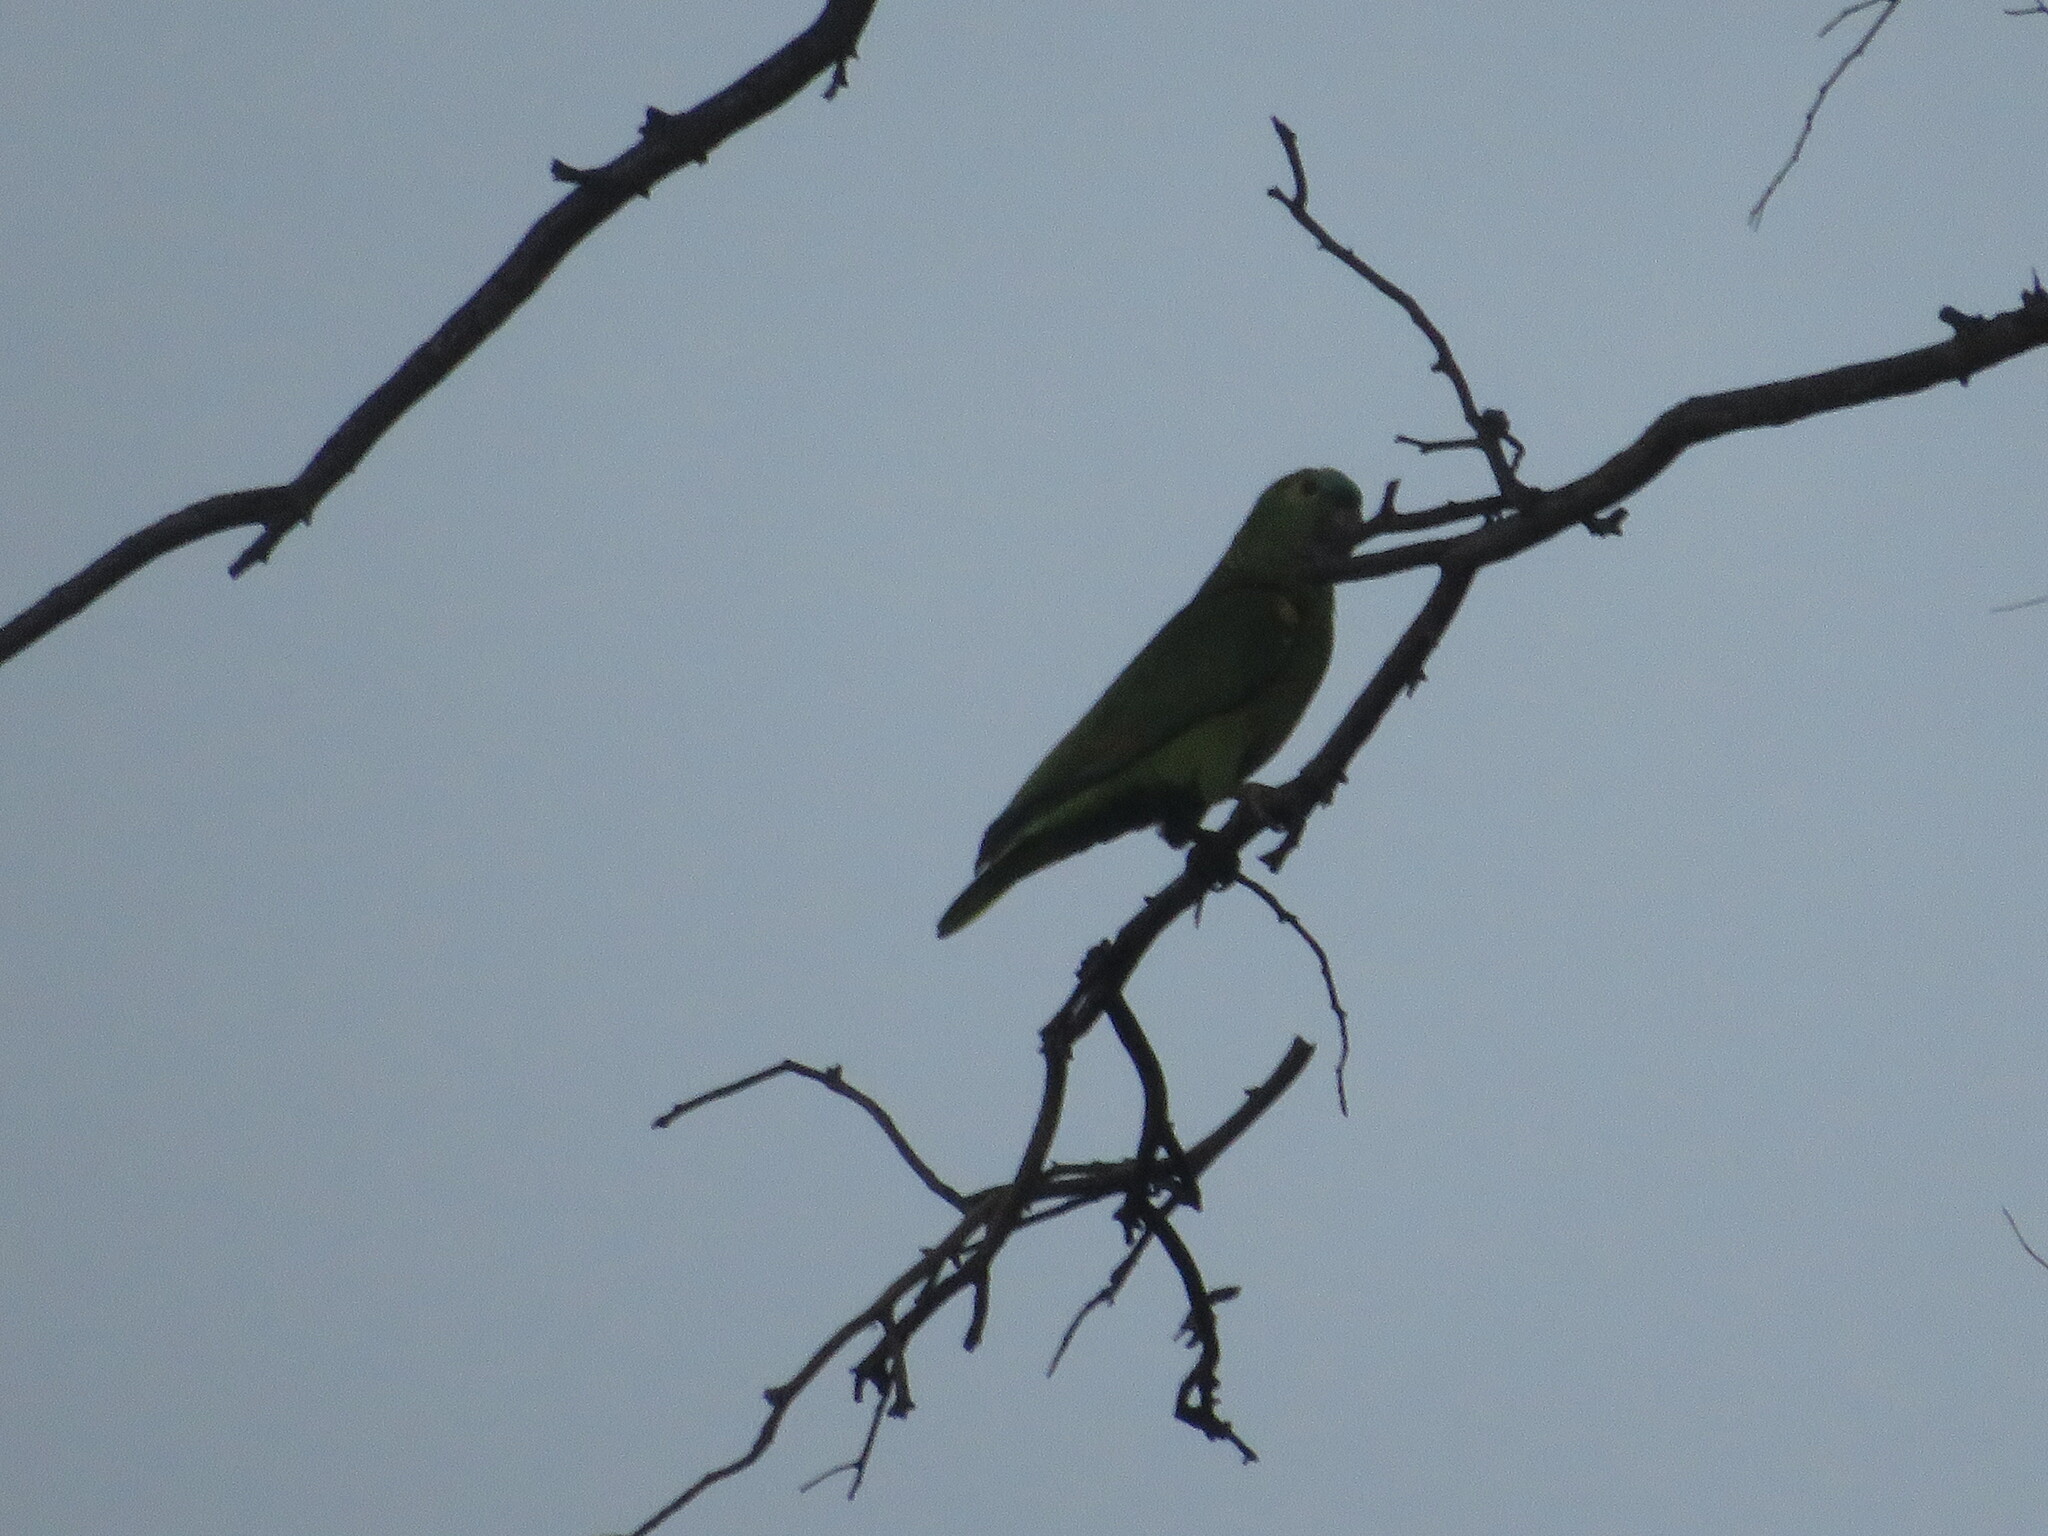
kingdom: Animalia
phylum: Chordata
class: Aves
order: Psittaciformes
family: Psittacidae
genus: Amazona
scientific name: Amazona aestiva
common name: Turquoise-fronted amazon
